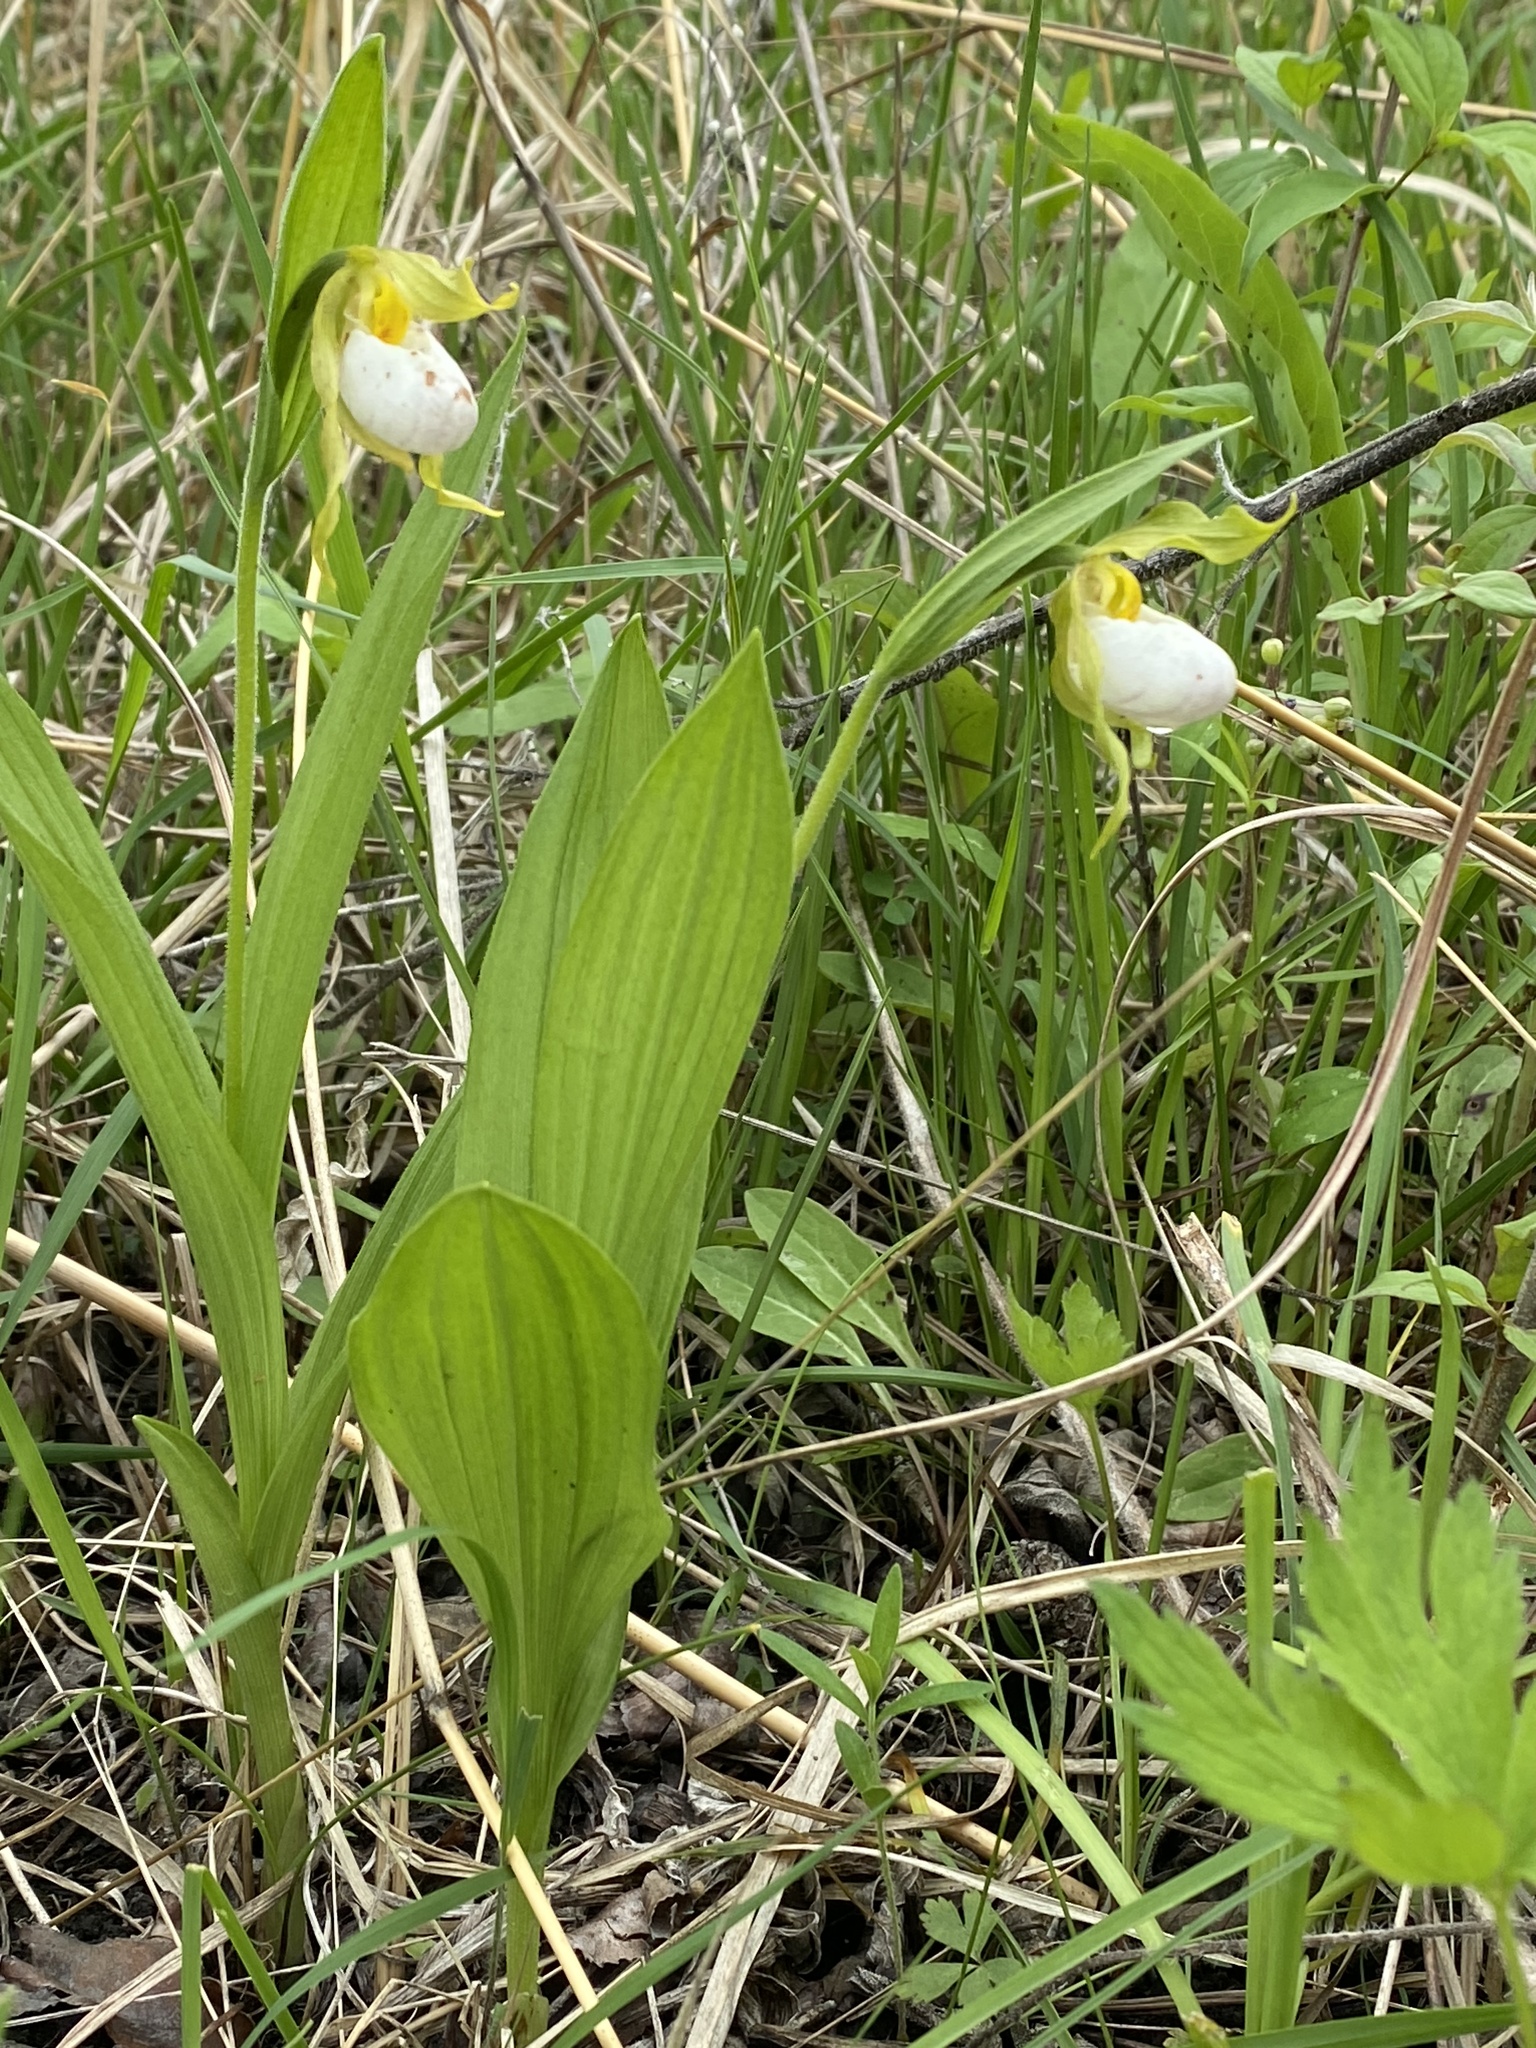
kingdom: Plantae
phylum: Tracheophyta
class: Liliopsida
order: Asparagales
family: Orchidaceae
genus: Cypripedium
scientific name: Cypripedium candidum
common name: White lady's-slipper
